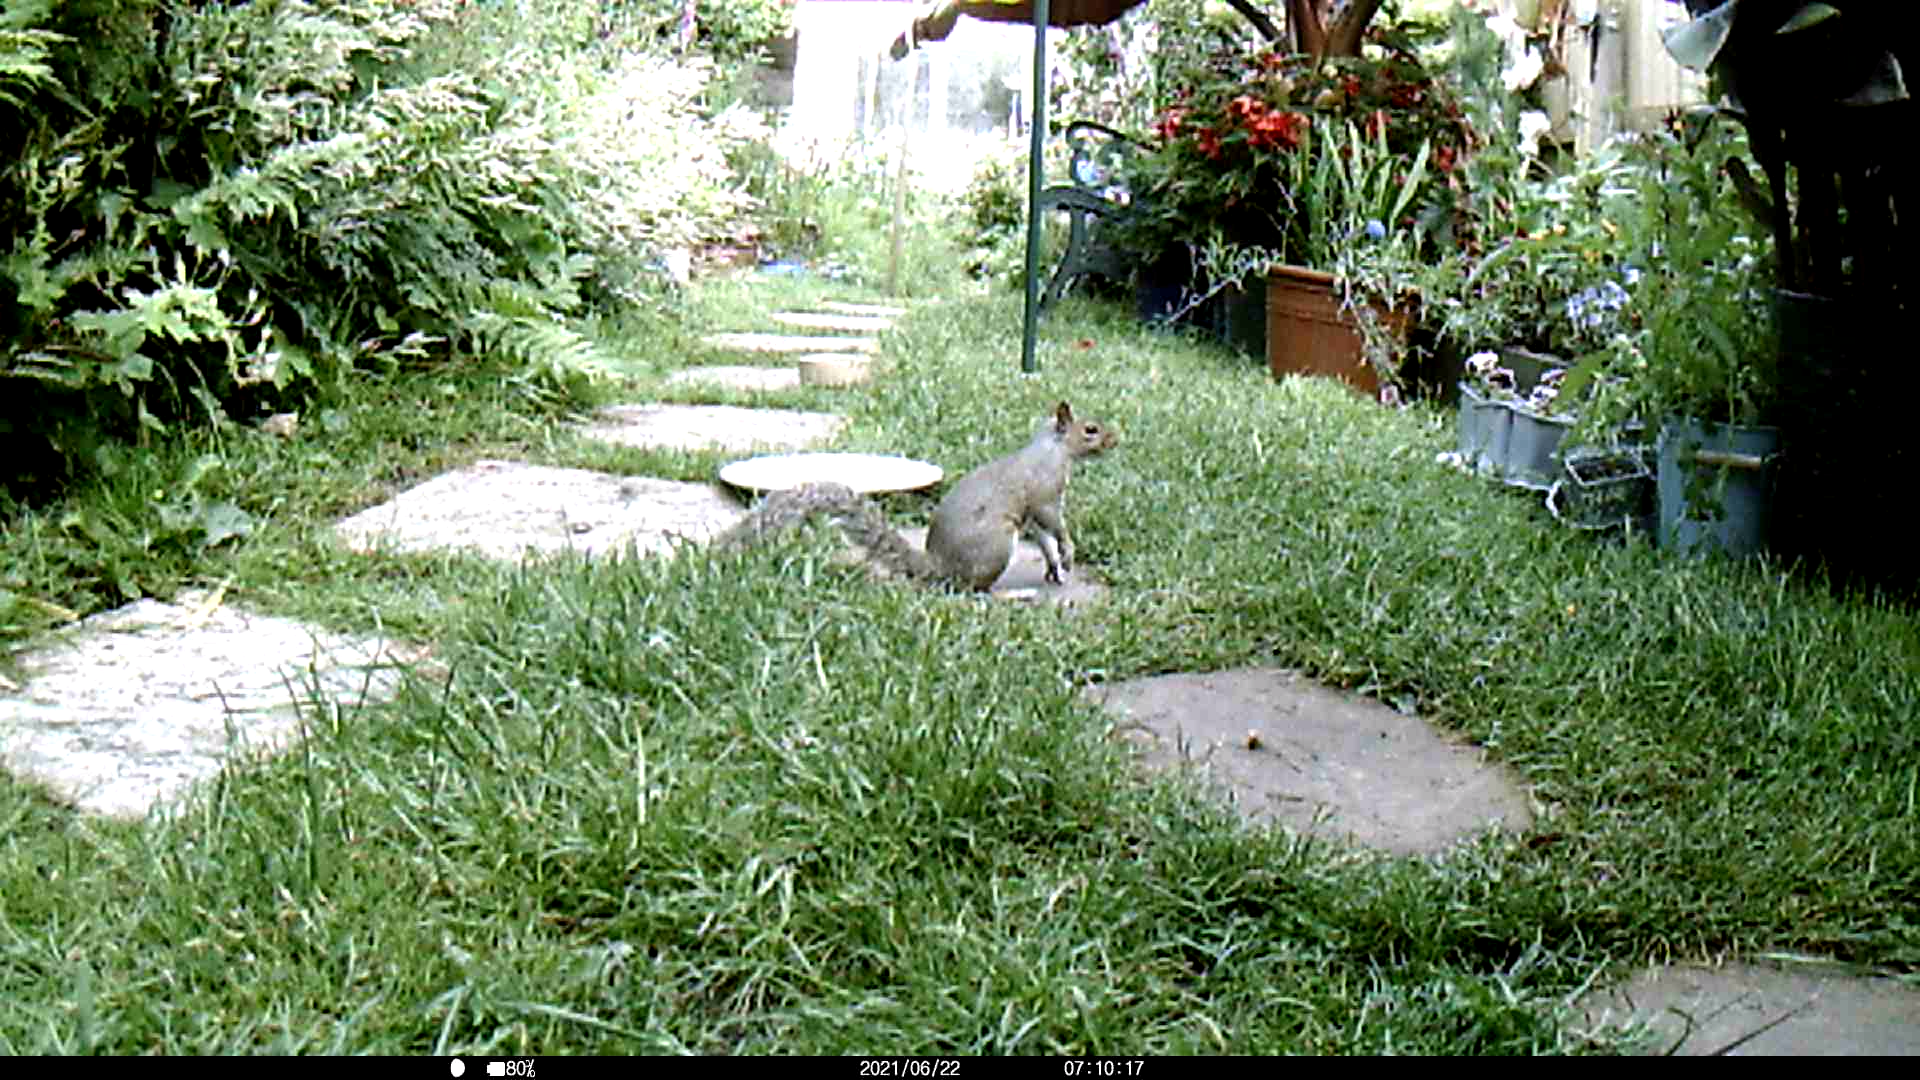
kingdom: Animalia
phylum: Chordata
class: Mammalia
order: Rodentia
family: Sciuridae
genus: Sciurus
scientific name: Sciurus carolinensis
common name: Eastern gray squirrel
